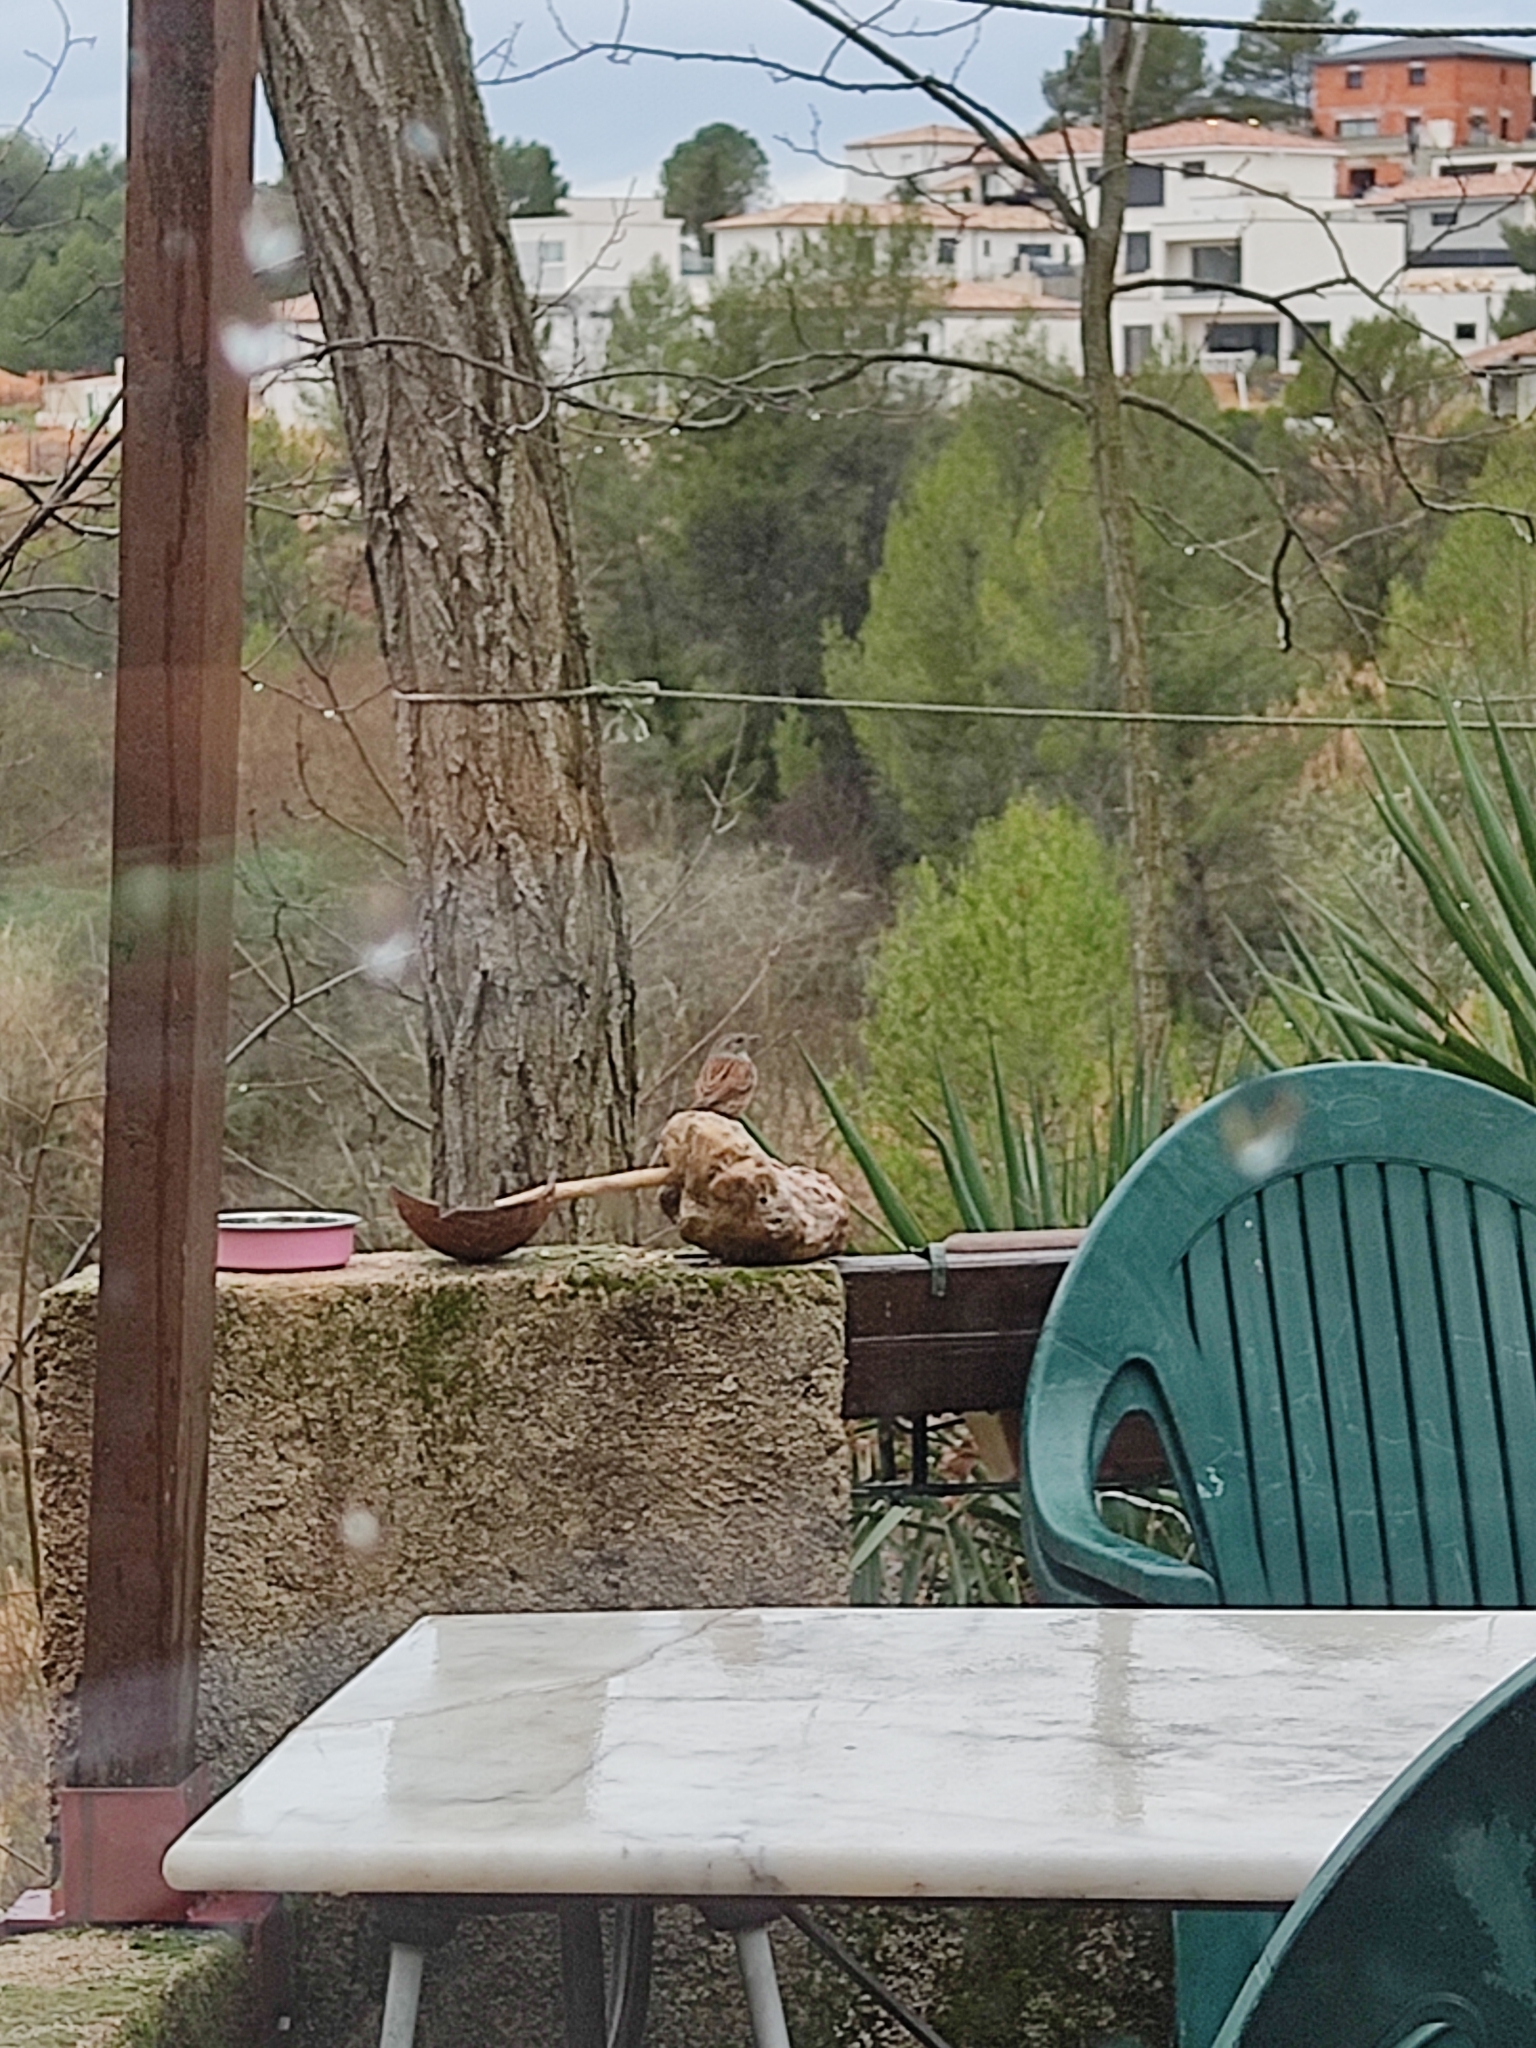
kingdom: Animalia
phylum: Chordata
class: Aves
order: Passeriformes
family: Prunellidae
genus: Prunella
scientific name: Prunella modularis
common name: Dunnock
